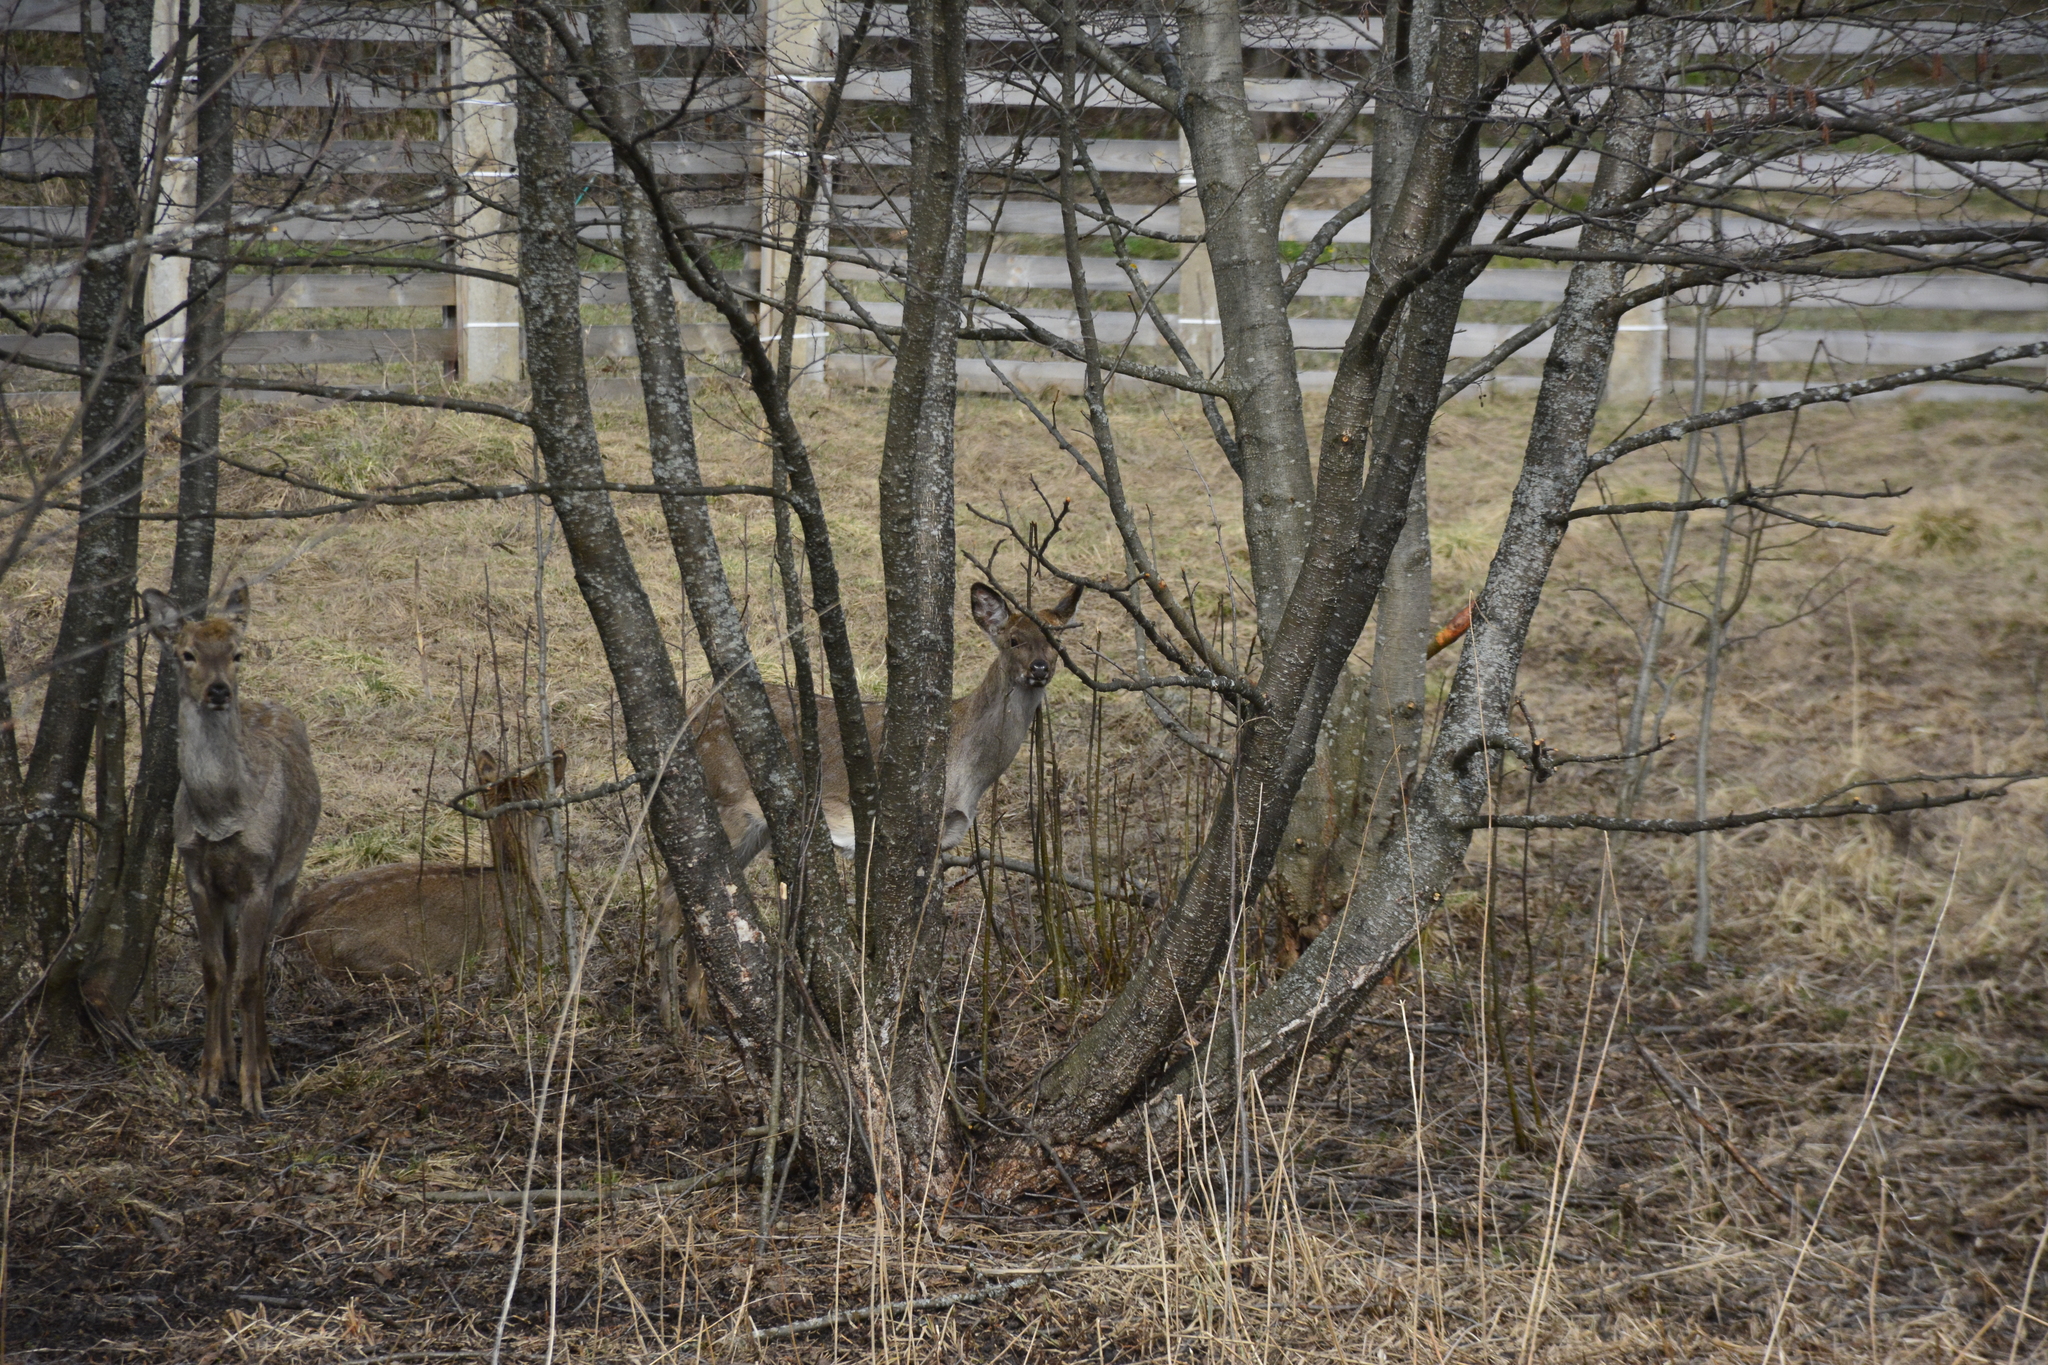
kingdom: Animalia
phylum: Chordata
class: Mammalia
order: Artiodactyla
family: Cervidae
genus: Cervus
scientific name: Cervus nippon
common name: Sika deer
